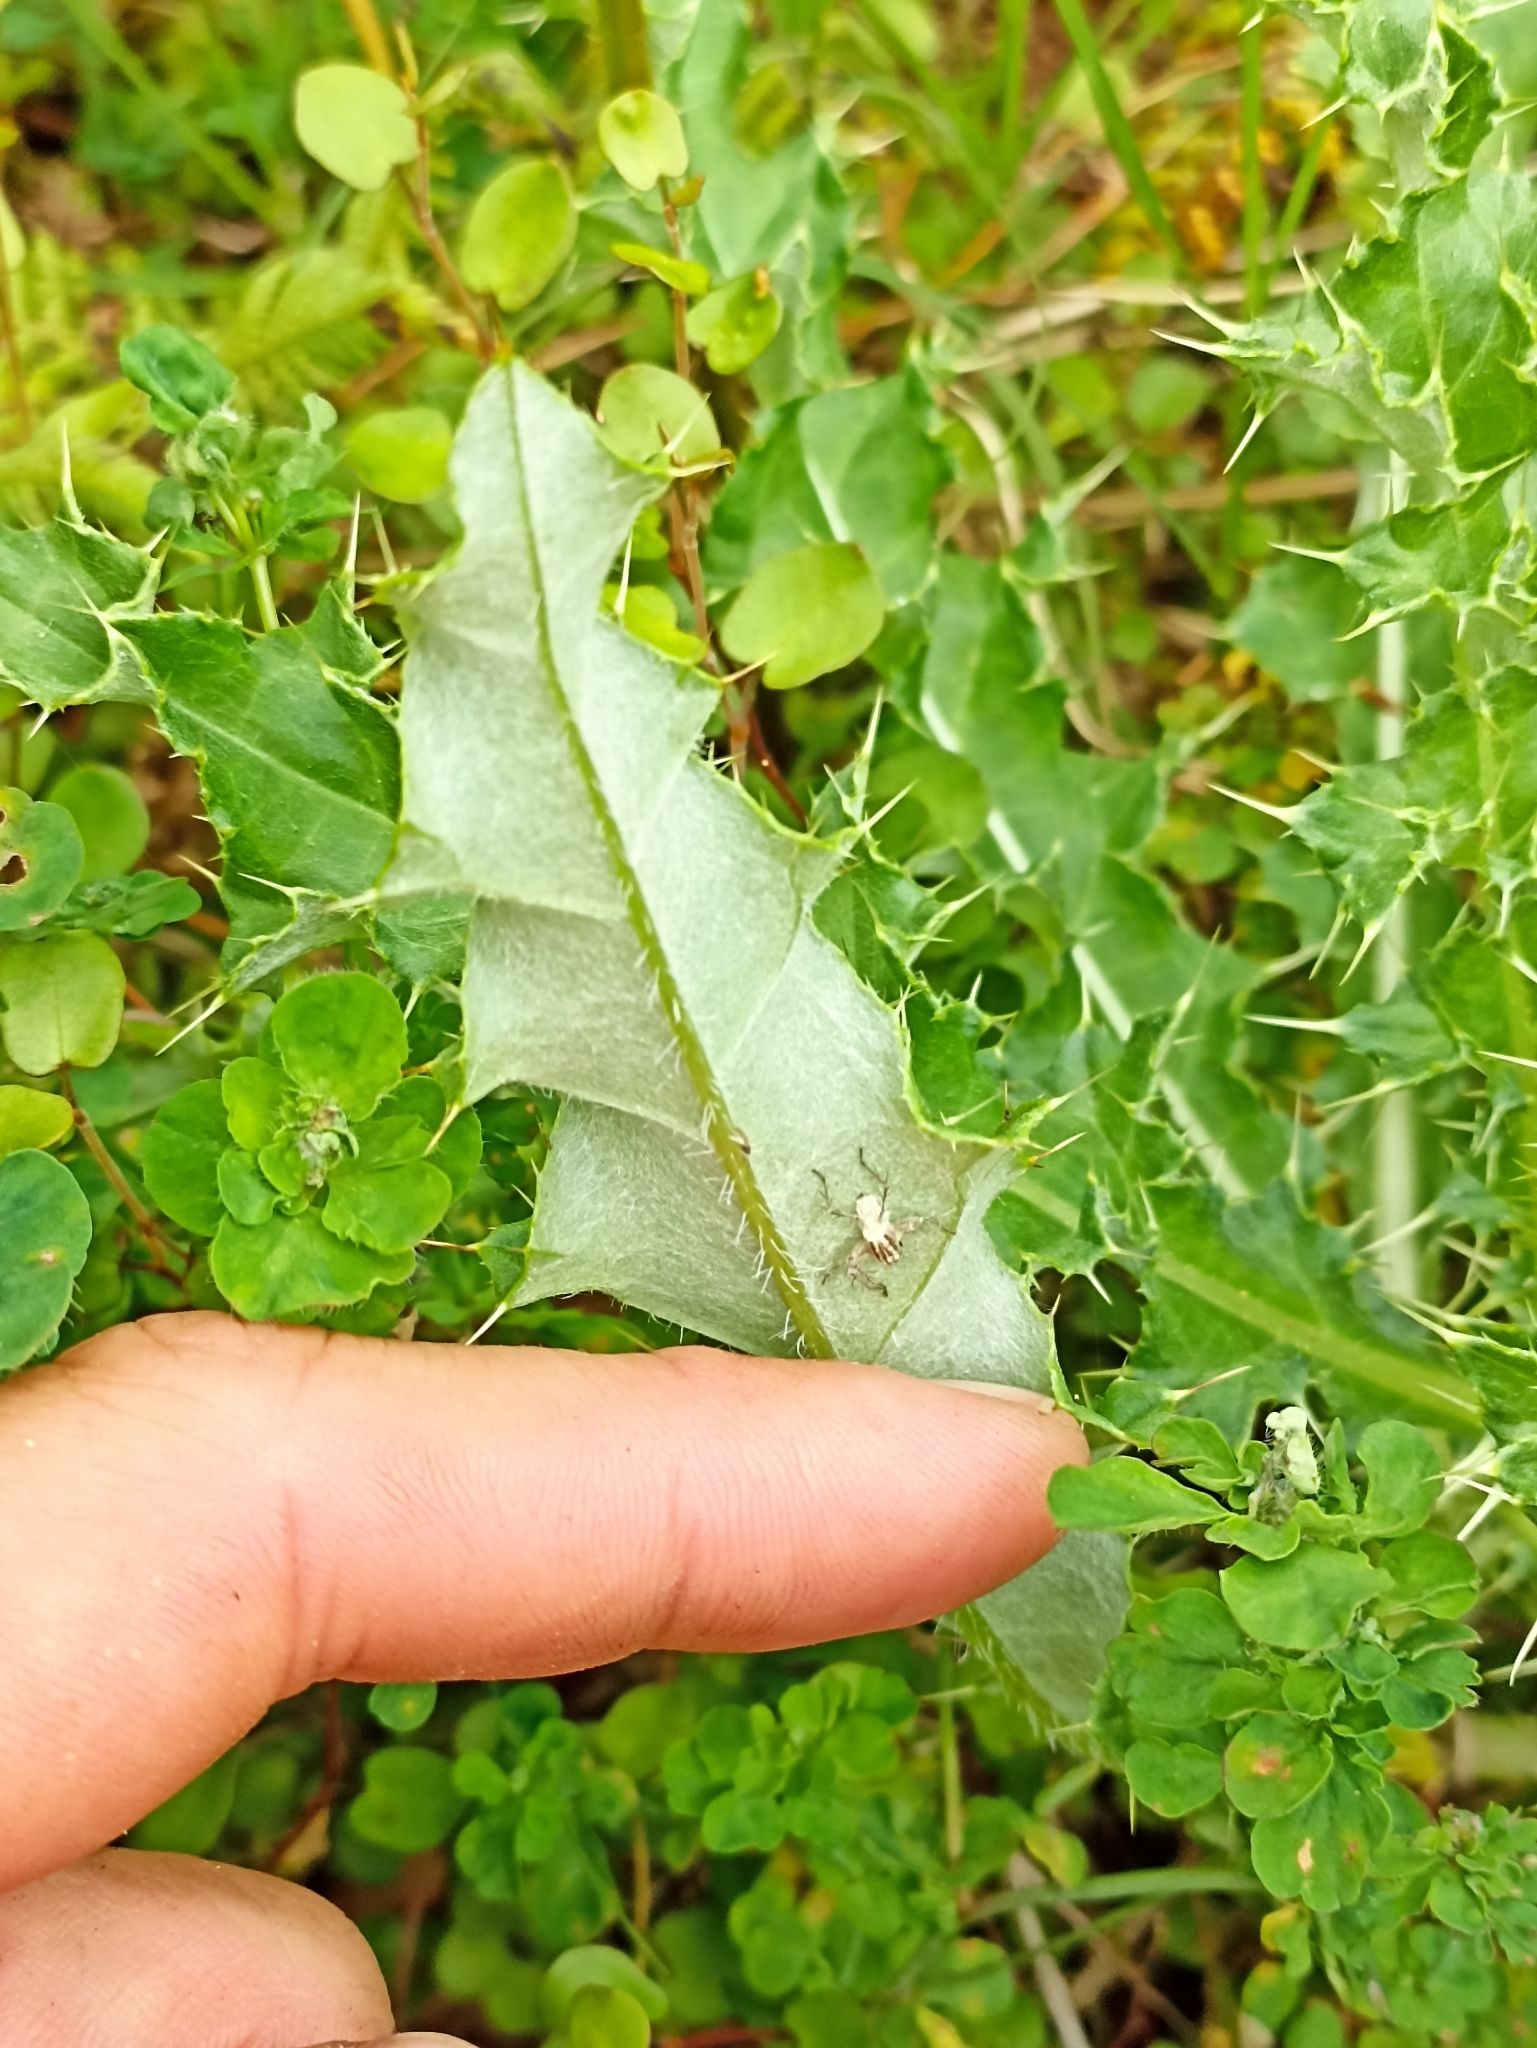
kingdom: Plantae
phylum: Tracheophyta
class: Magnoliopsida
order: Asterales
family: Asteraceae
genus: Cirsium
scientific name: Cirsium arvense
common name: Creeping thistle
